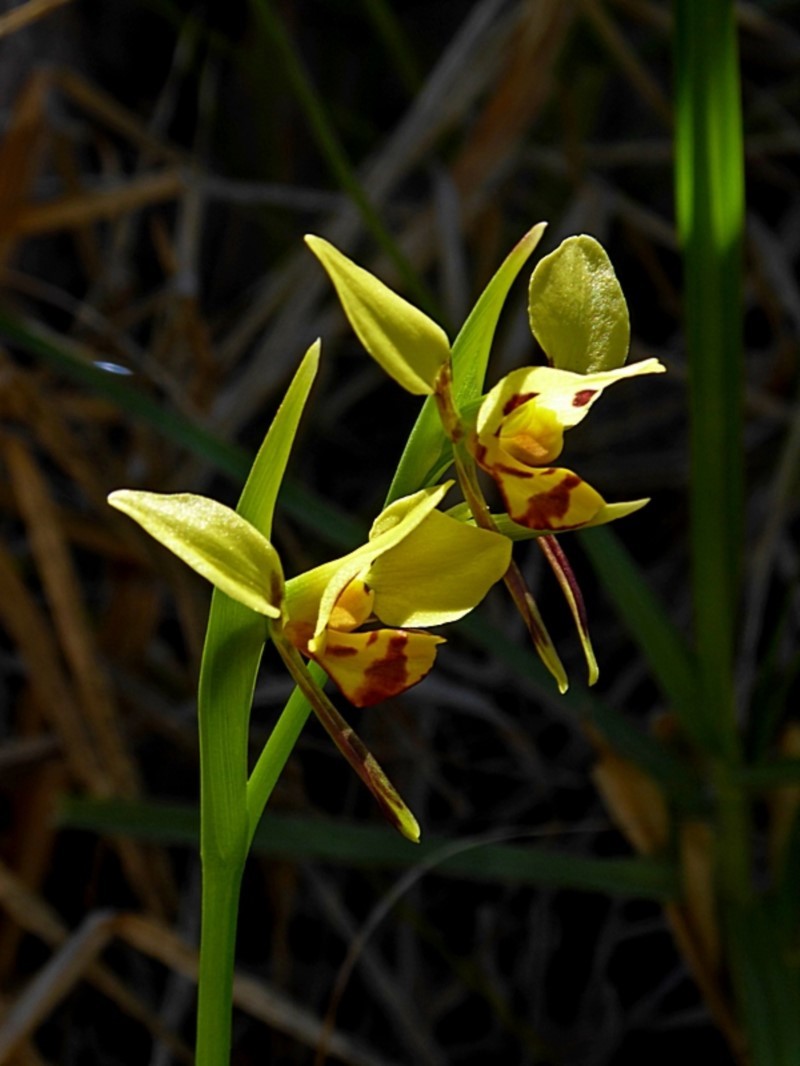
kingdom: Plantae
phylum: Tracheophyta
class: Liliopsida
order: Asparagales
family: Orchidaceae
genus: Diuris
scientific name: Diuris sulphurea
